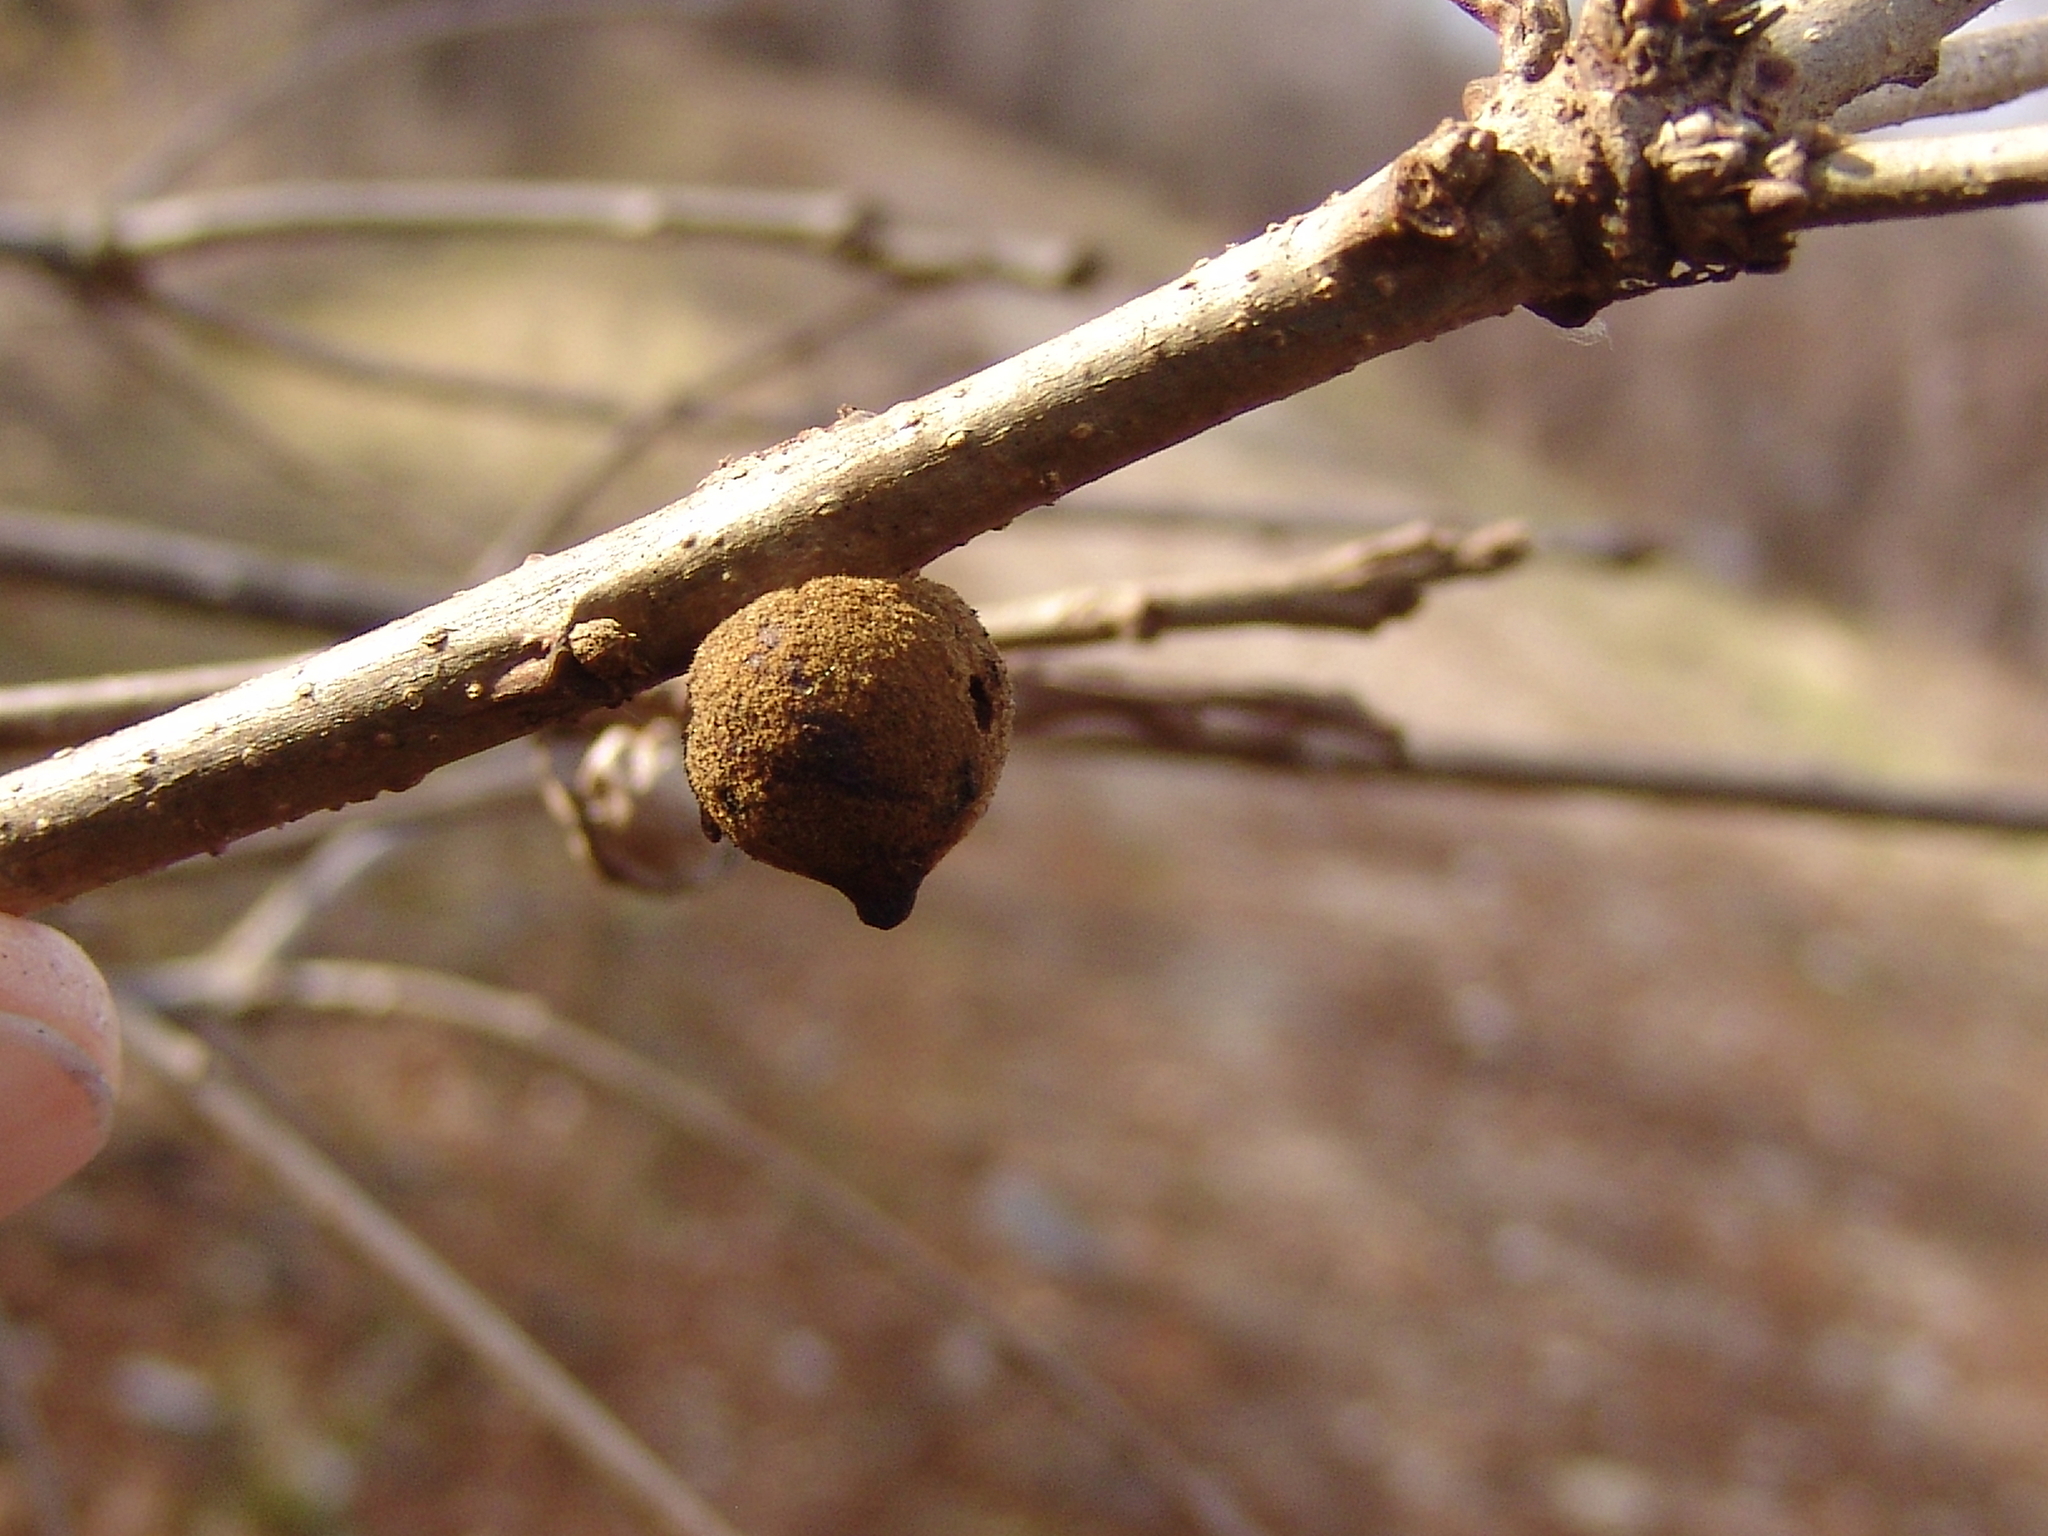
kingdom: Animalia
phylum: Arthropoda
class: Insecta
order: Hymenoptera
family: Cynipidae
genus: Disholcaspis
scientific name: Disholcaspis
